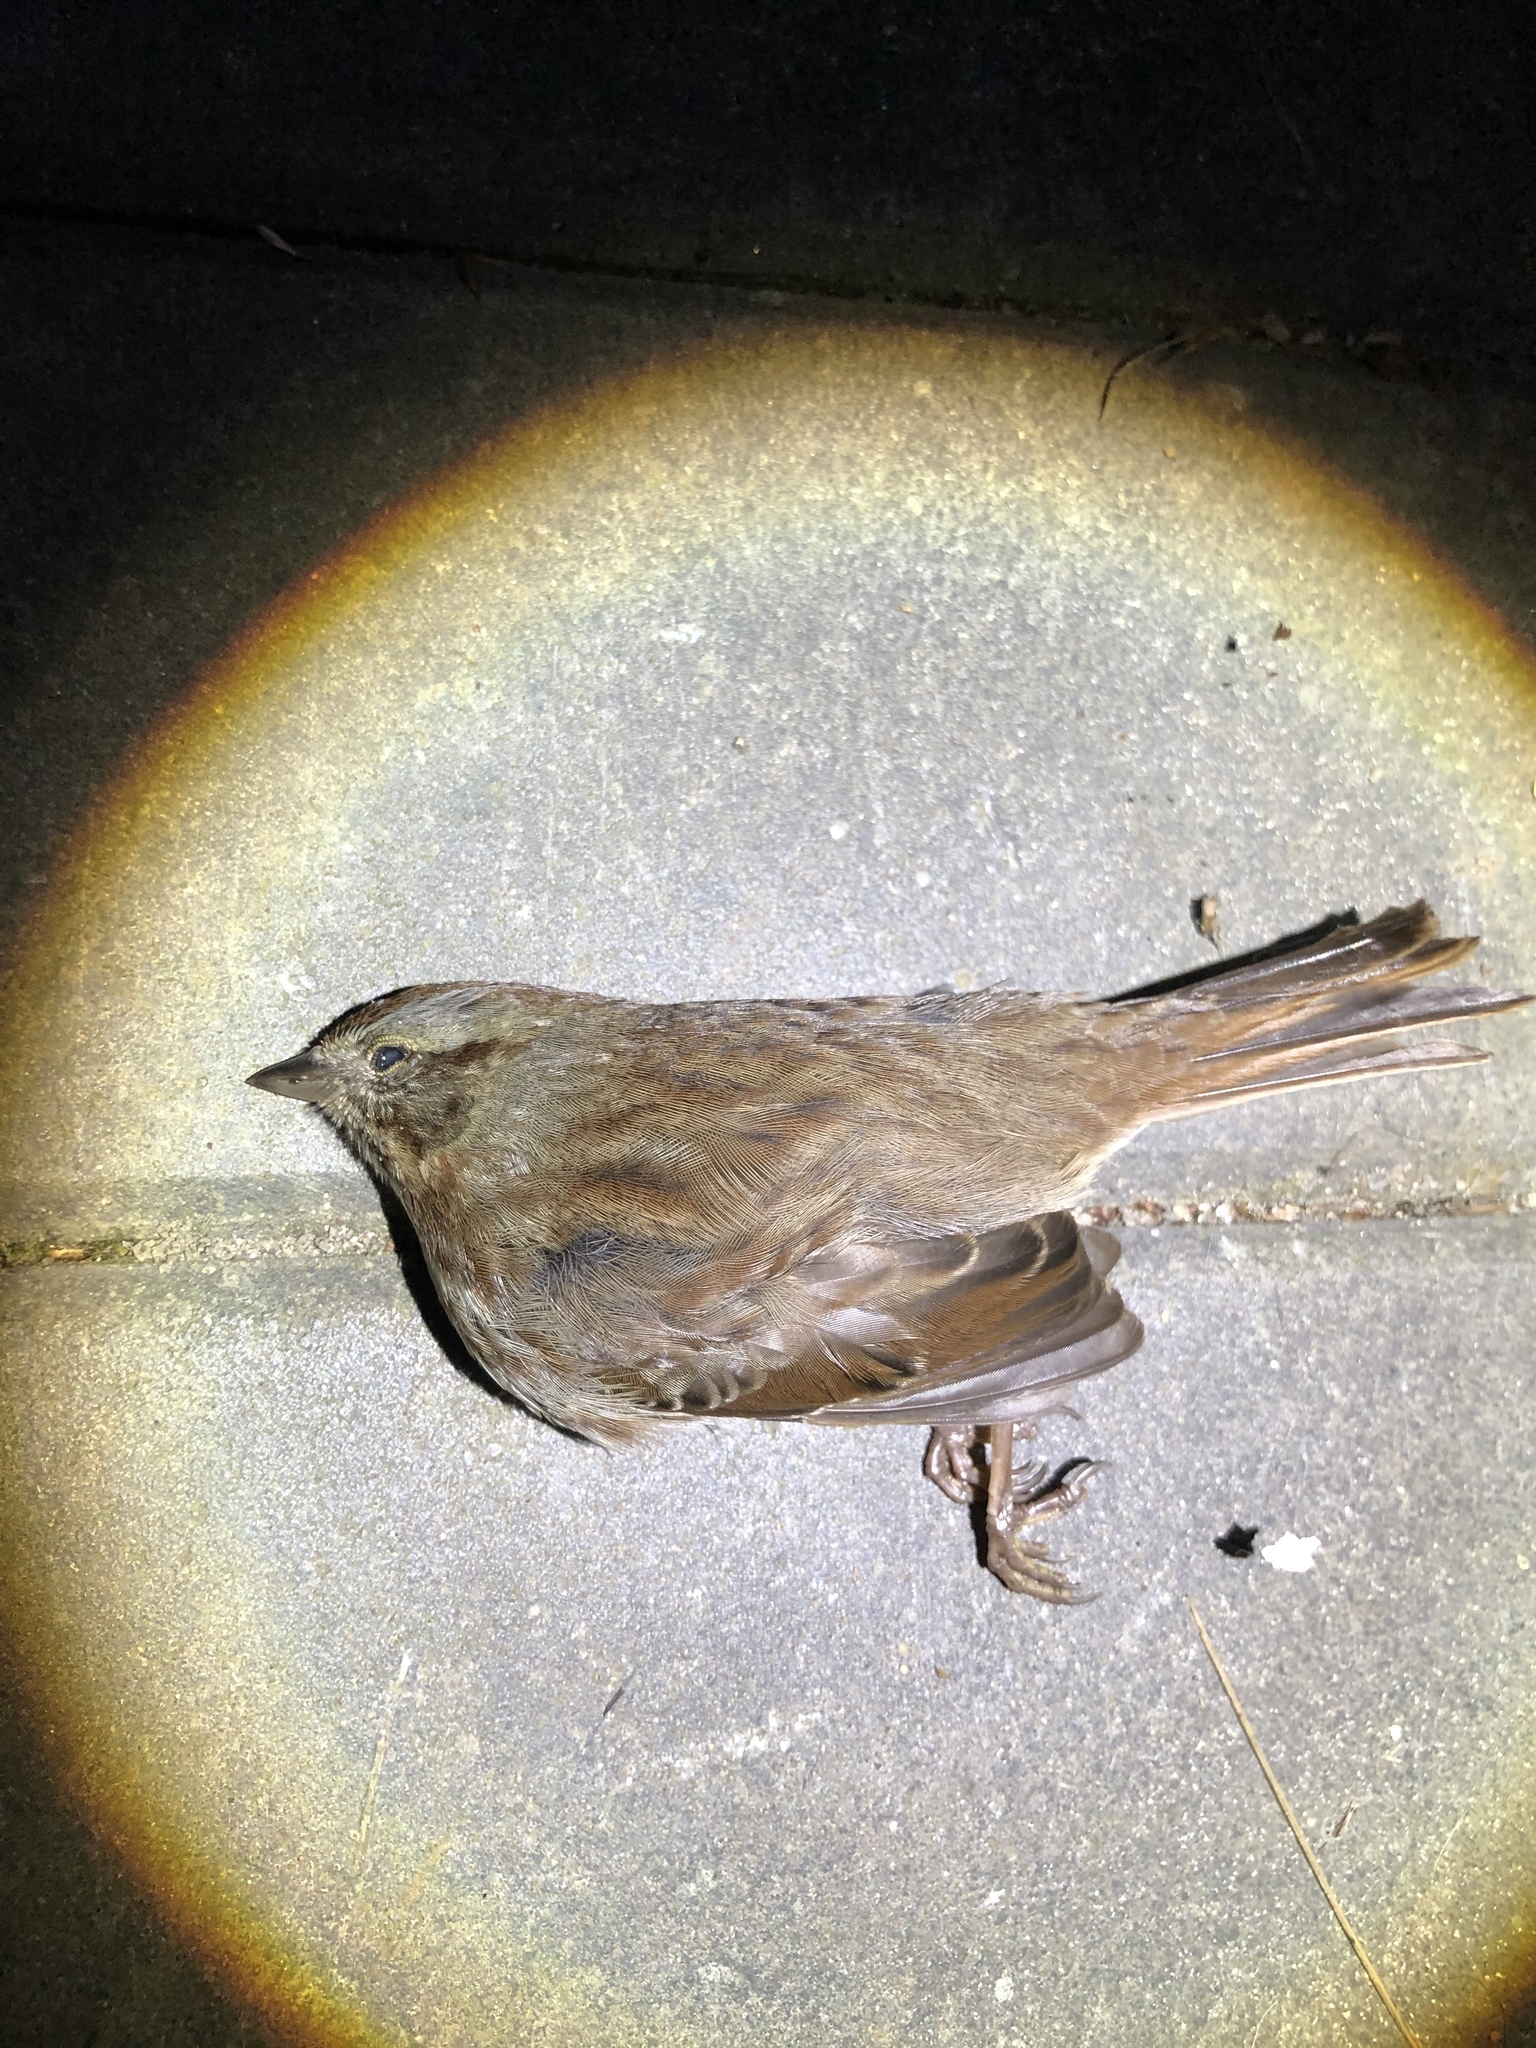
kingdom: Animalia
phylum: Chordata
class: Aves
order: Passeriformes
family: Passerellidae
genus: Melospiza
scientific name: Melospiza melodia
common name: Song sparrow
